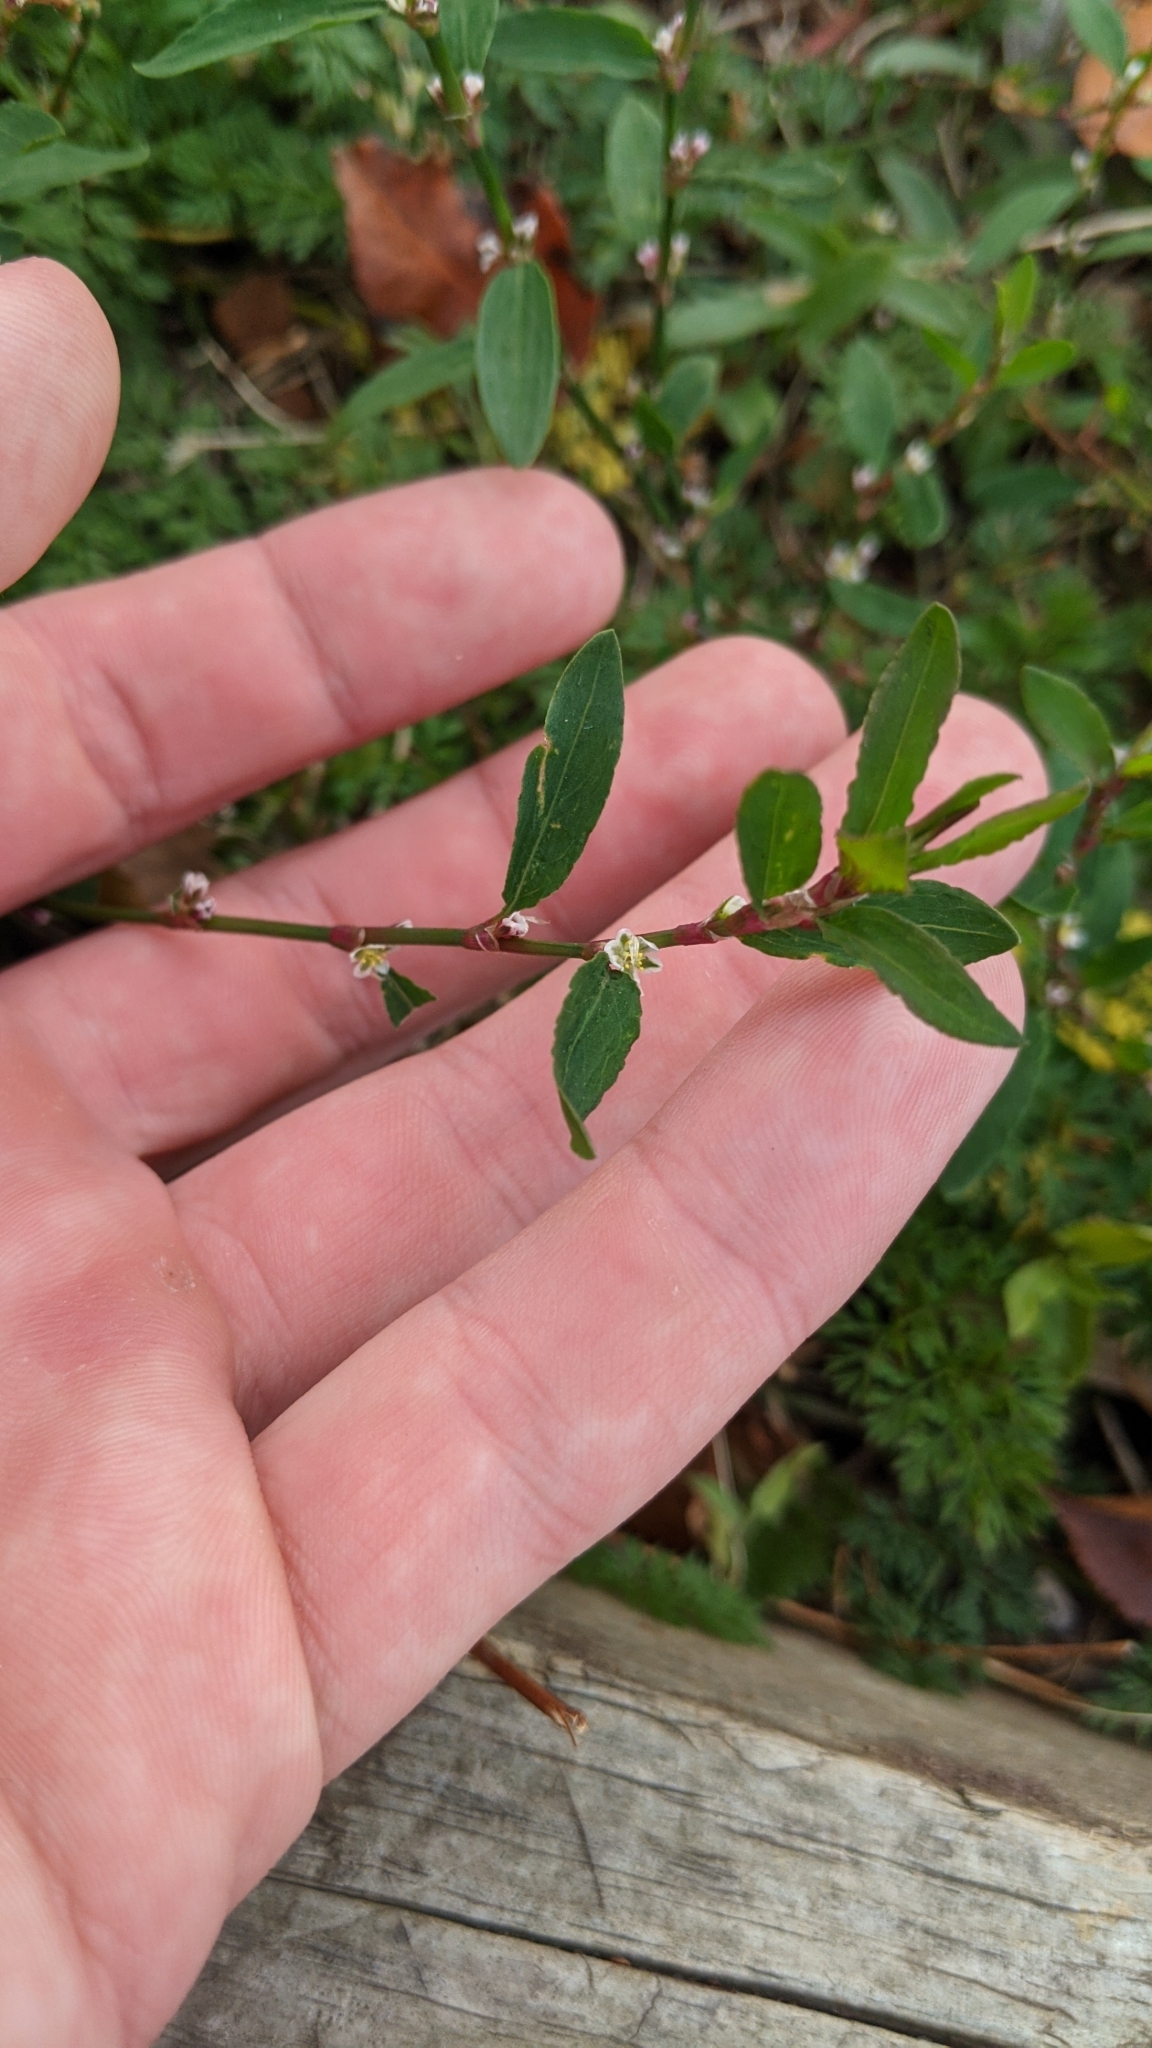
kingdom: Plantae
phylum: Tracheophyta
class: Magnoliopsida
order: Caryophyllales
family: Polygonaceae
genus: Polygonum
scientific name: Polygonum aviculare
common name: Prostrate knotweed
